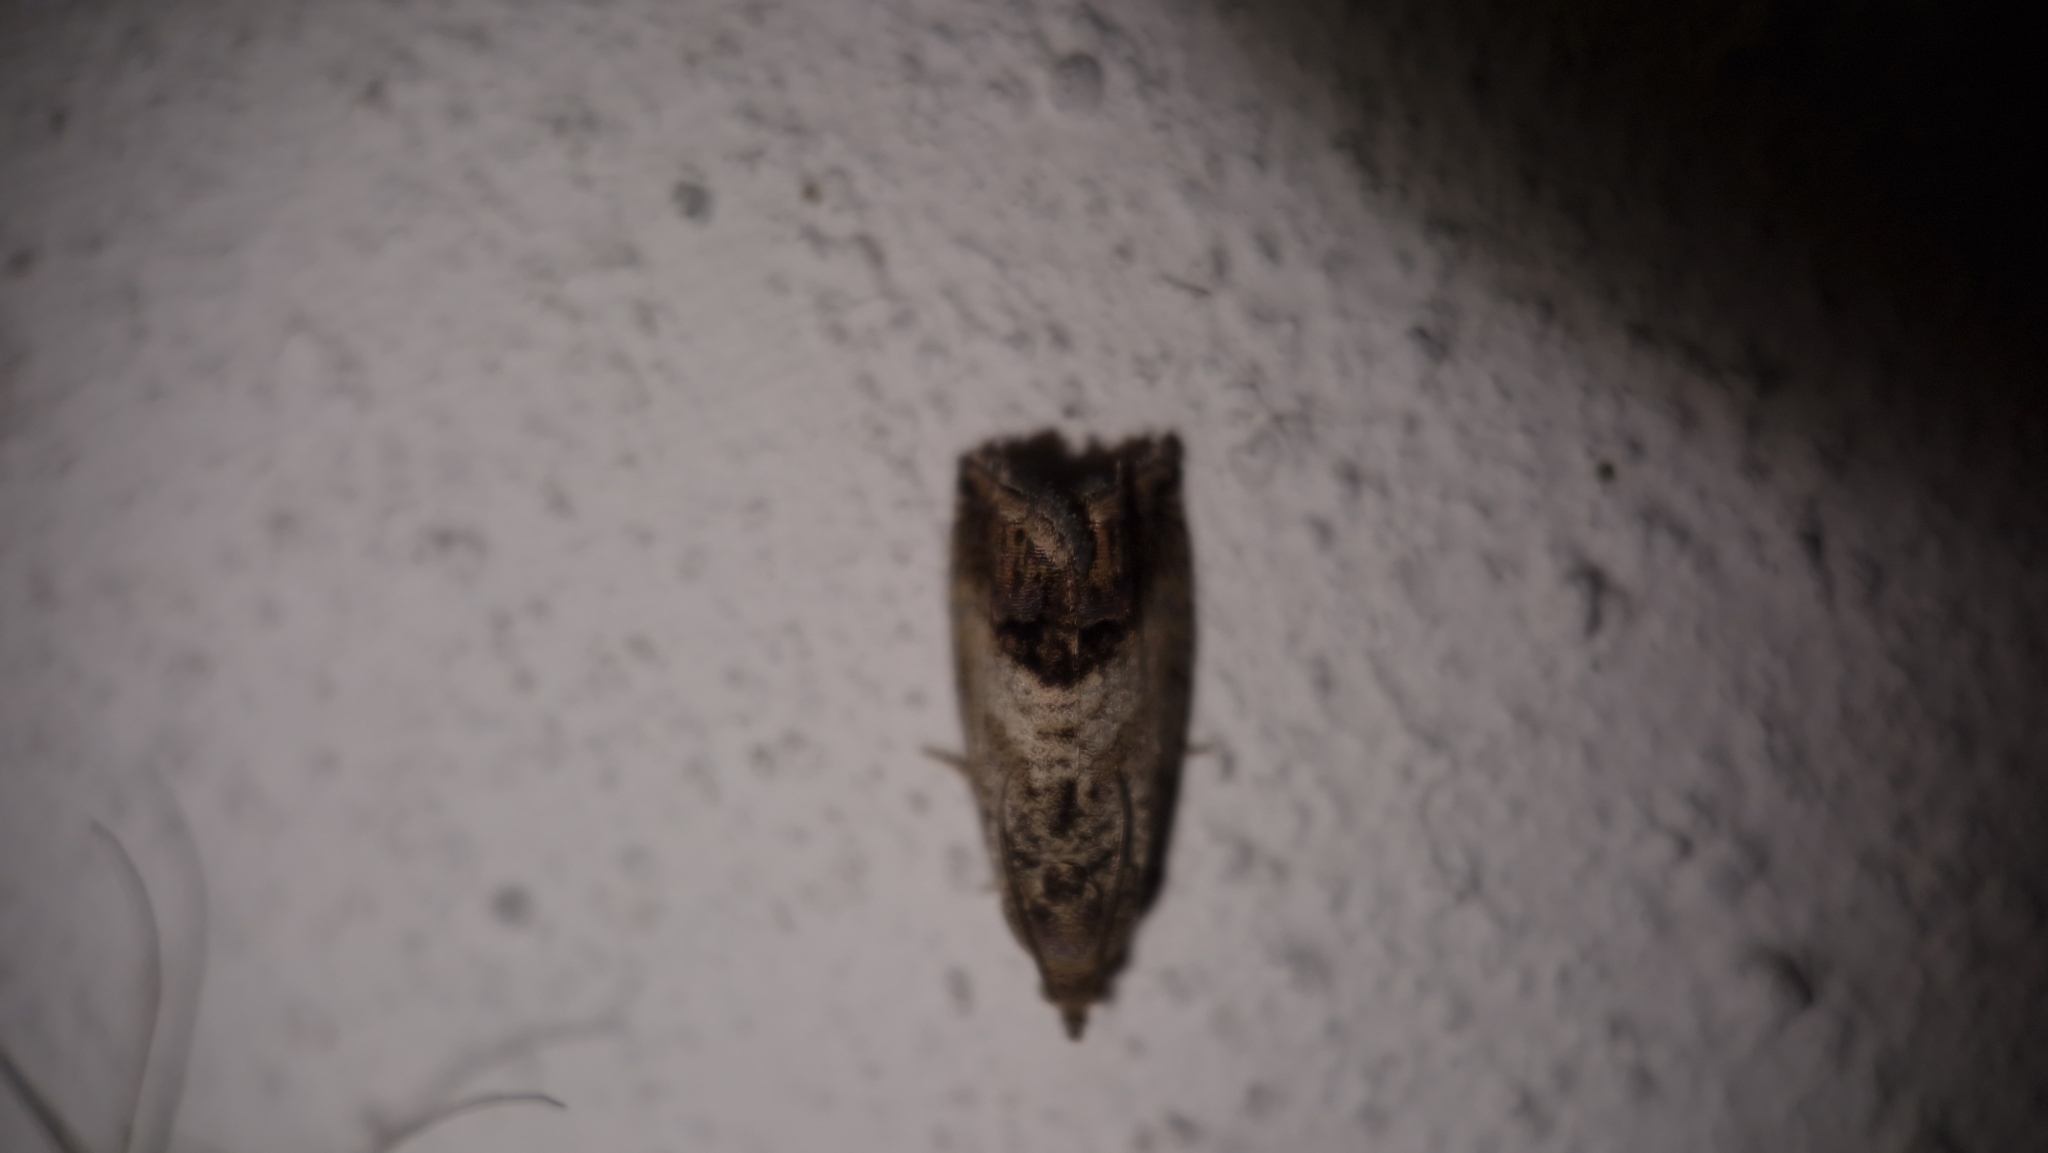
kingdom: Animalia
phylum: Arthropoda
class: Insecta
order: Lepidoptera
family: Tortricidae
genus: Cydia
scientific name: Cydia splendana
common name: De: kastanienwickler, eichenwickler es: oruga de la castaña fr: carpocapse des châtaignes it: cidia o tortrice tardiva delle castagne pt: bichado das castanhas gb: acorn moth, chestnut fruit tortrix
